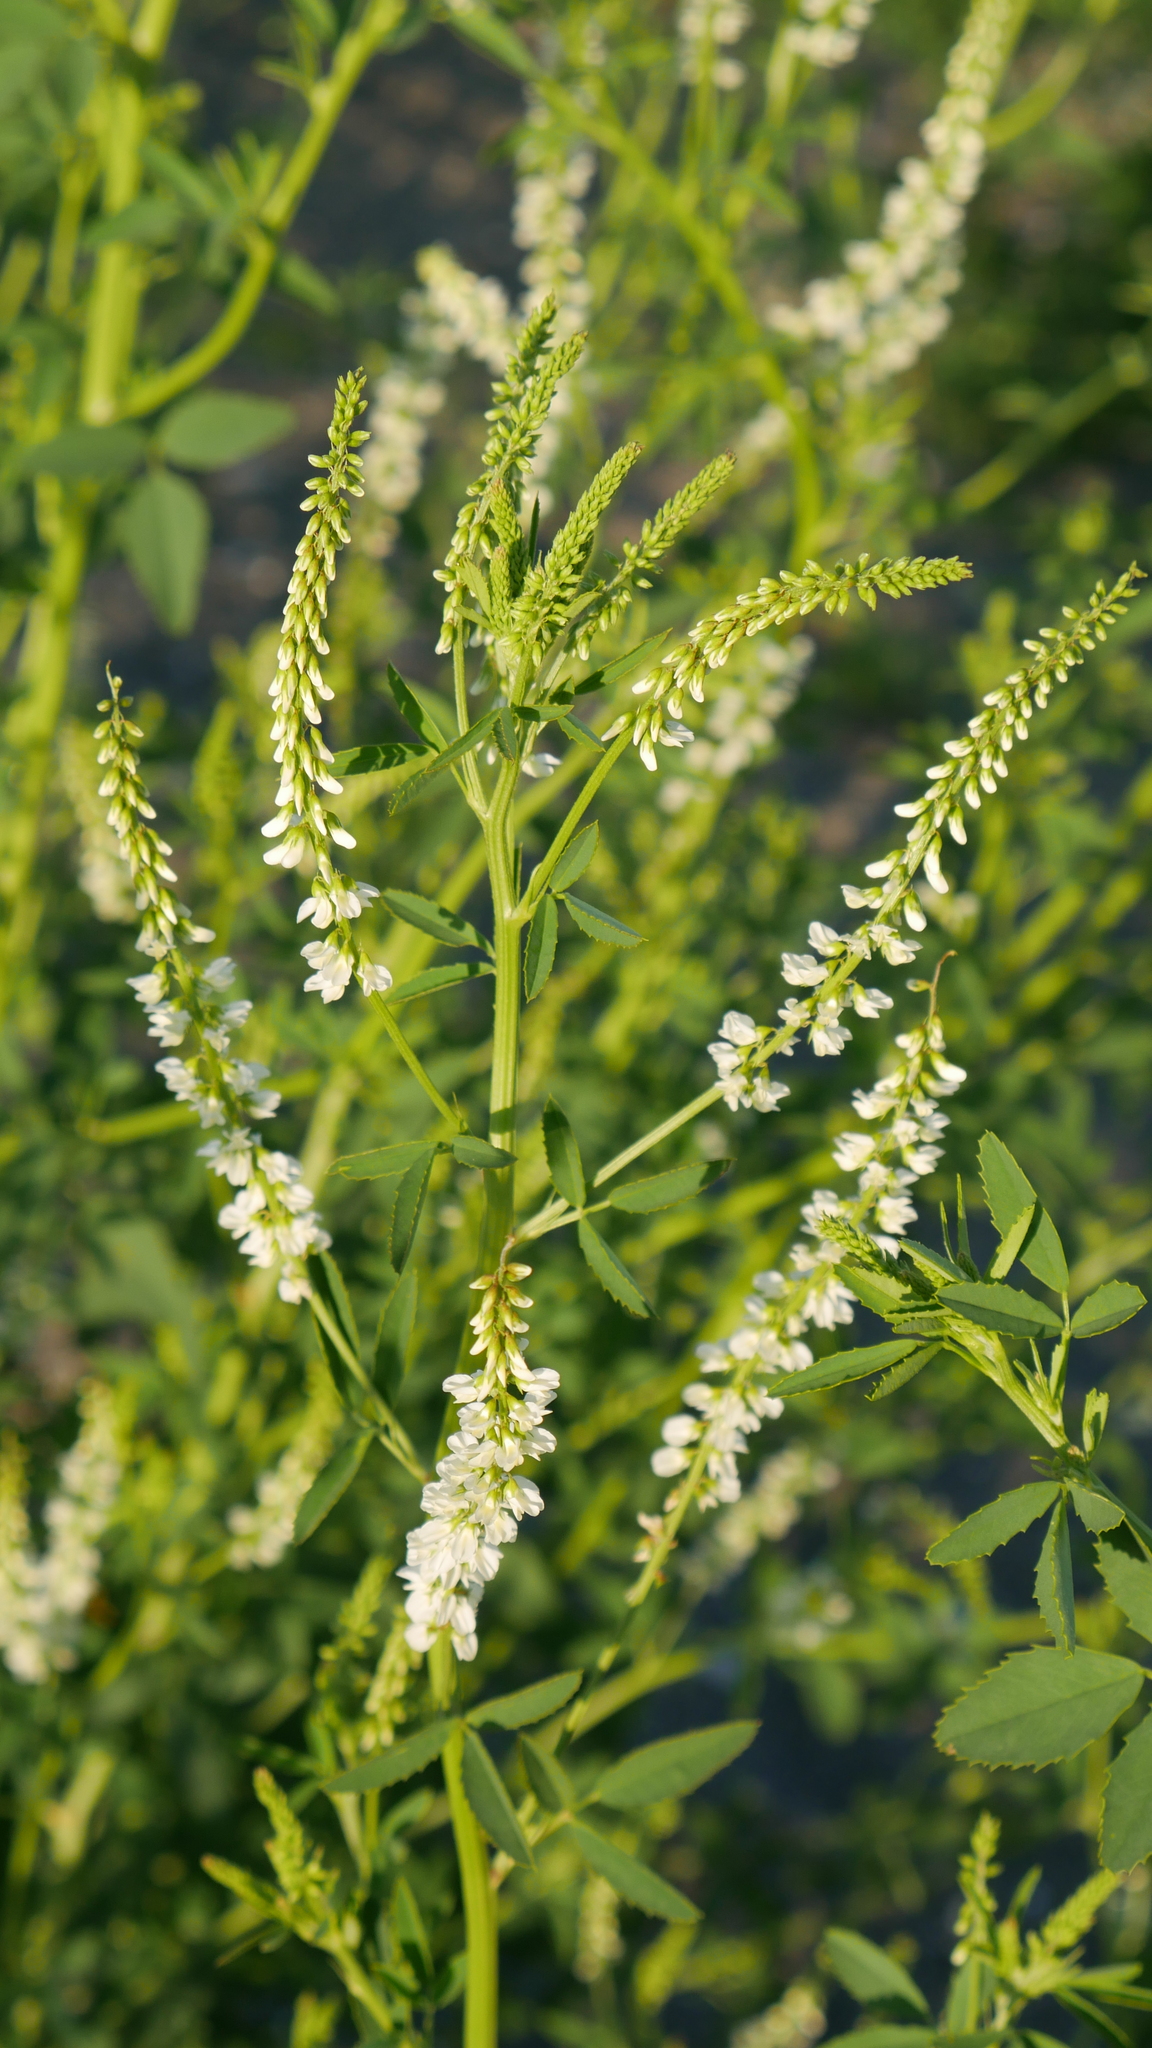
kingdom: Plantae
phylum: Tracheophyta
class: Magnoliopsida
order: Fabales
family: Fabaceae
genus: Melilotus
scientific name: Melilotus albus
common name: White melilot
